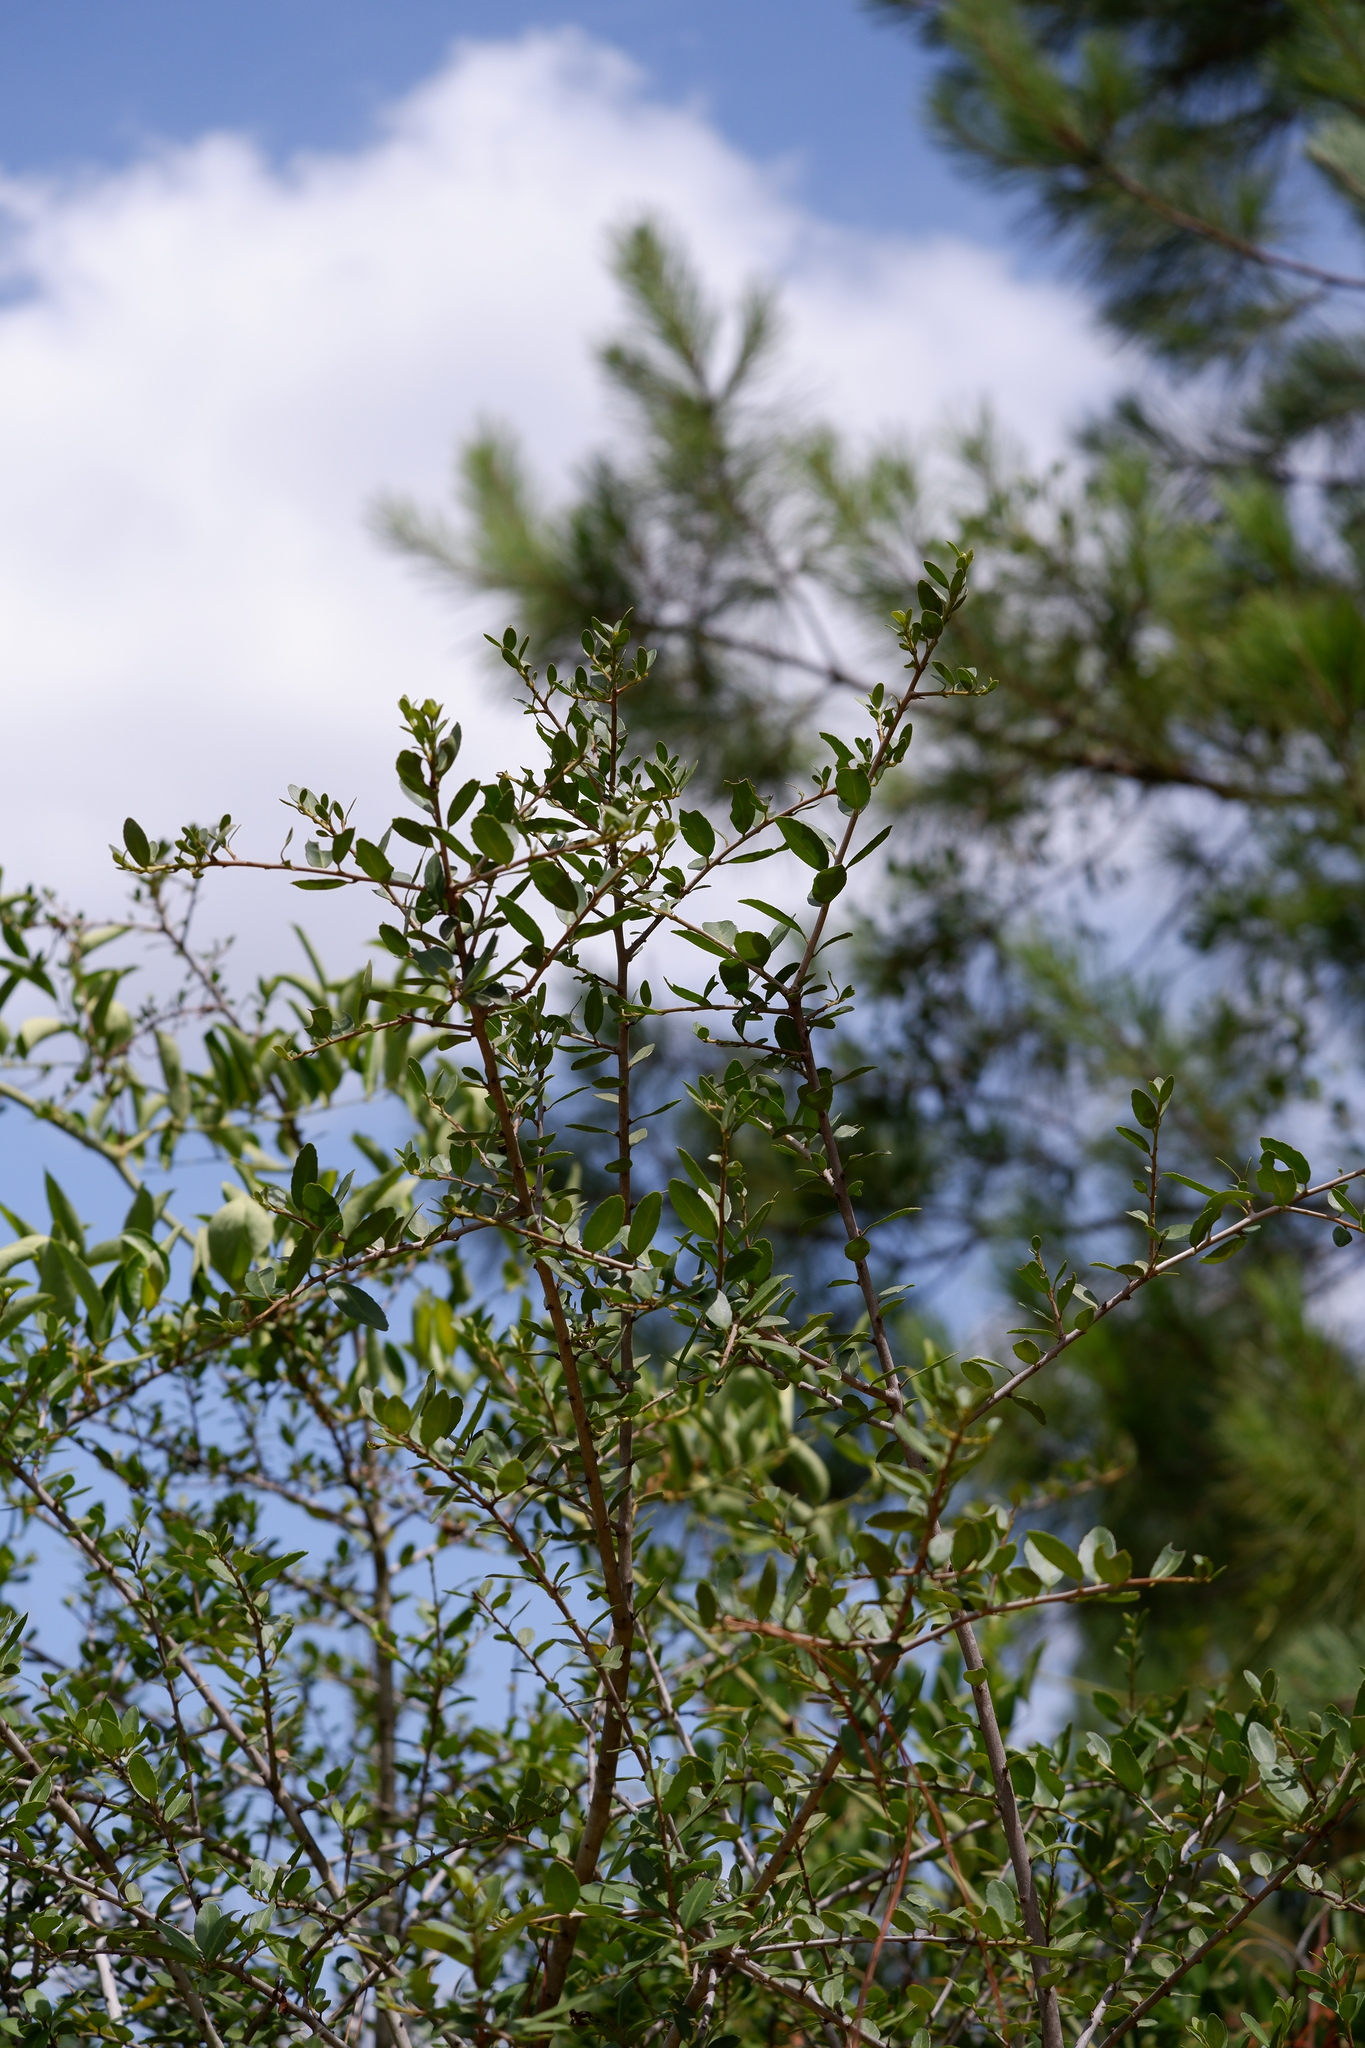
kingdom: Plantae
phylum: Tracheophyta
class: Magnoliopsida
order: Aquifoliales
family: Aquifoliaceae
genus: Ilex
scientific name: Ilex vomitoria
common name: Yaupon holly
